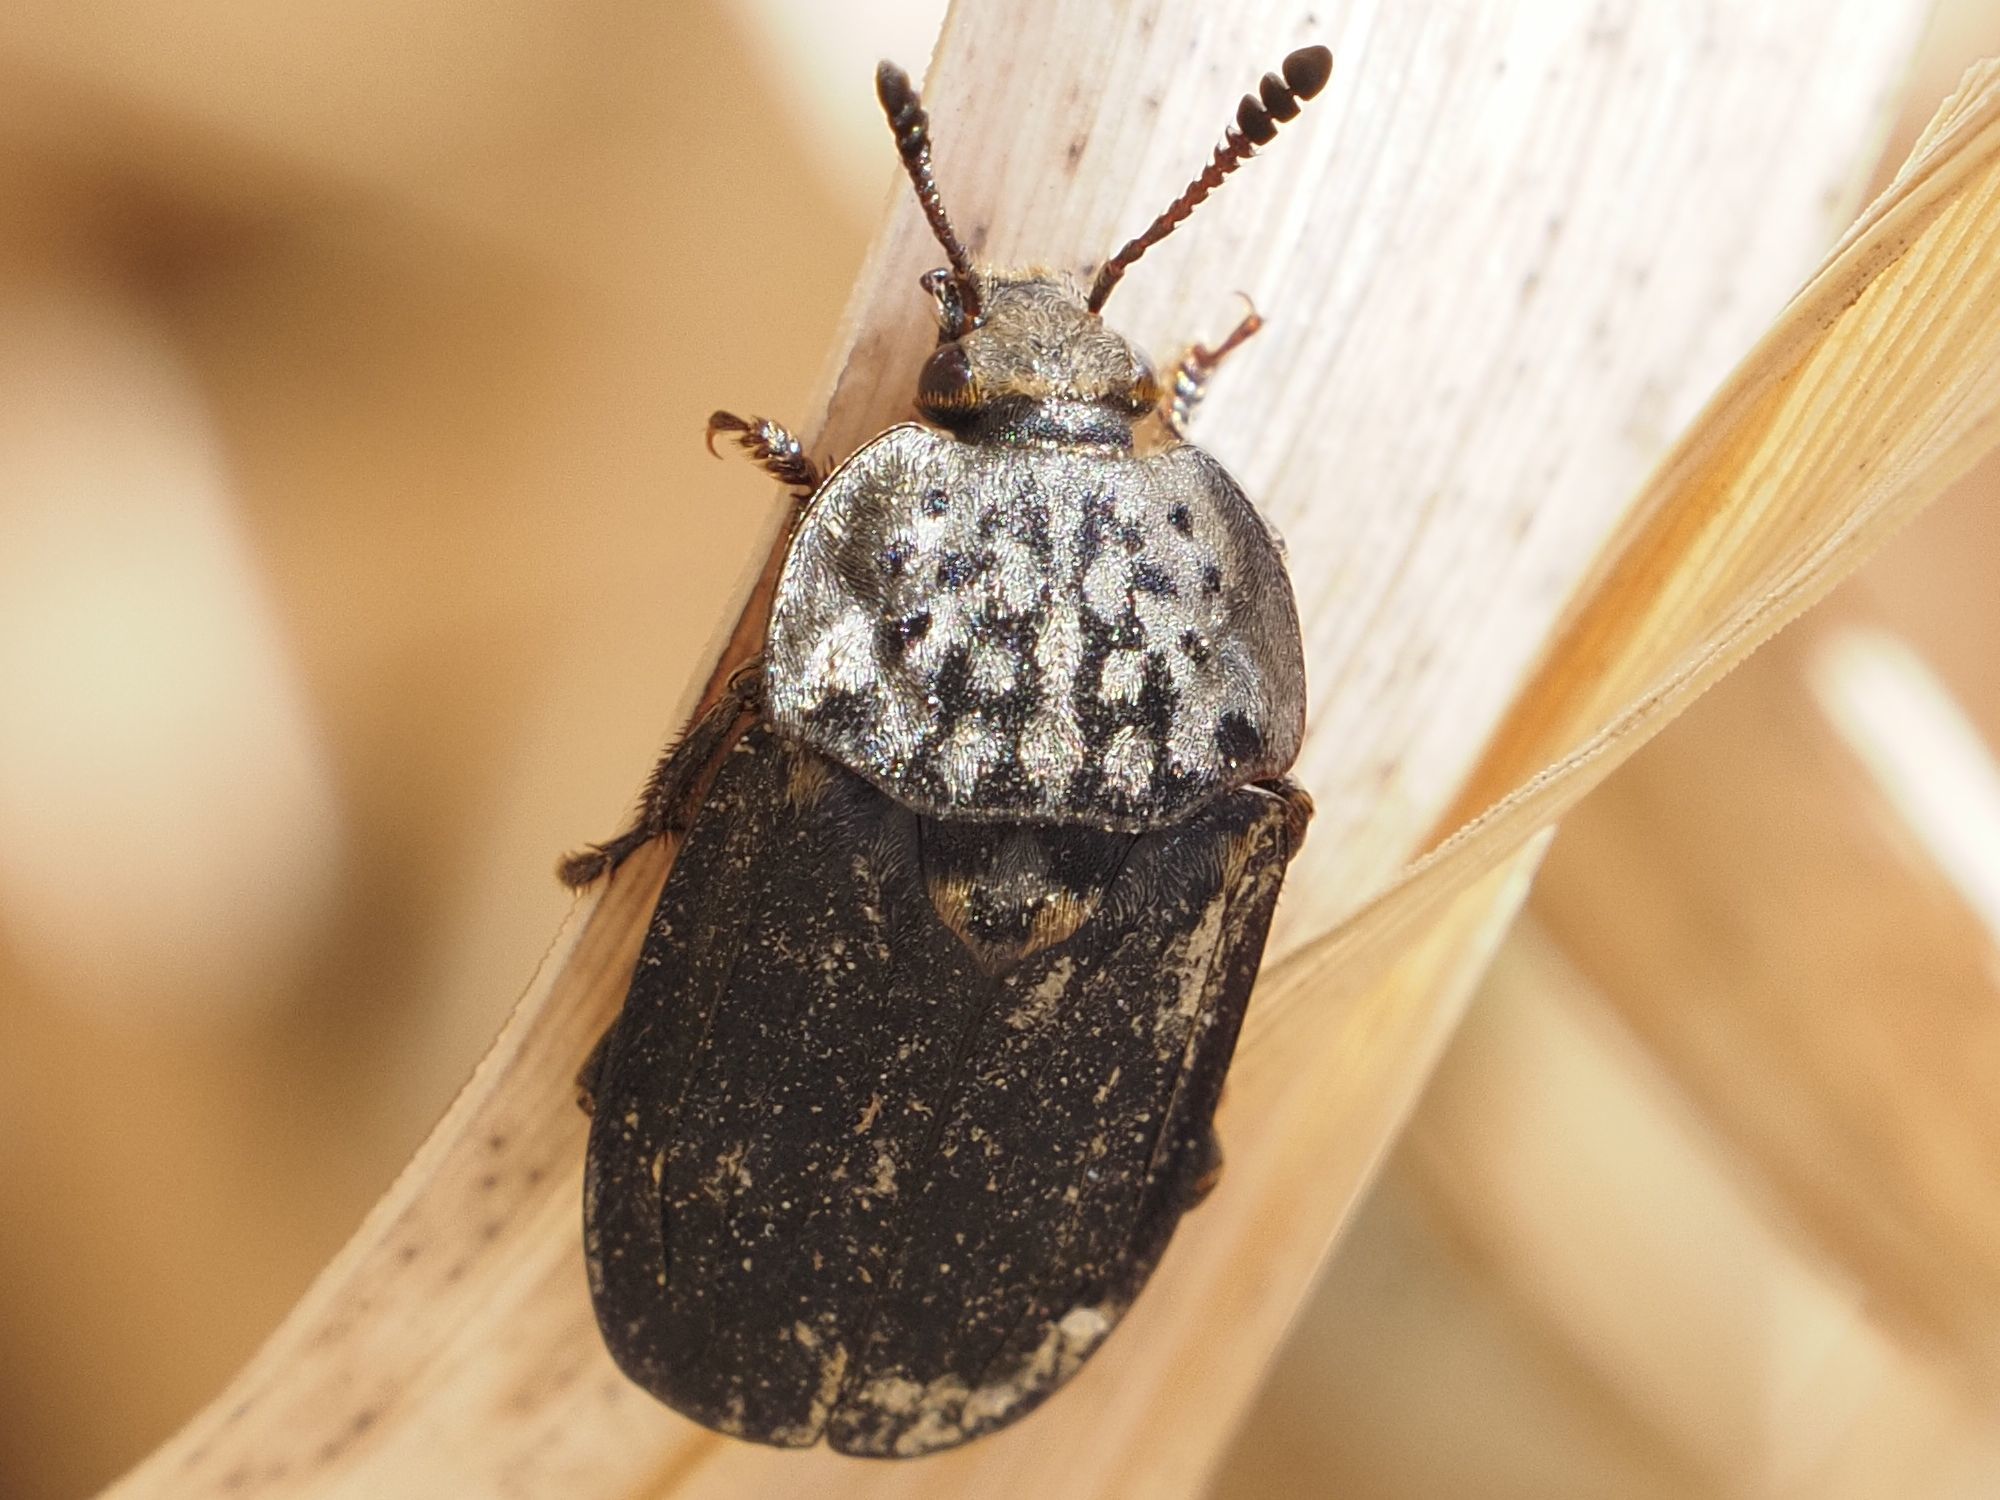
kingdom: Animalia
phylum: Arthropoda
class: Insecta
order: Coleoptera
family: Staphylinidae
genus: Thanatophilus
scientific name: Thanatophilus sinuatus
